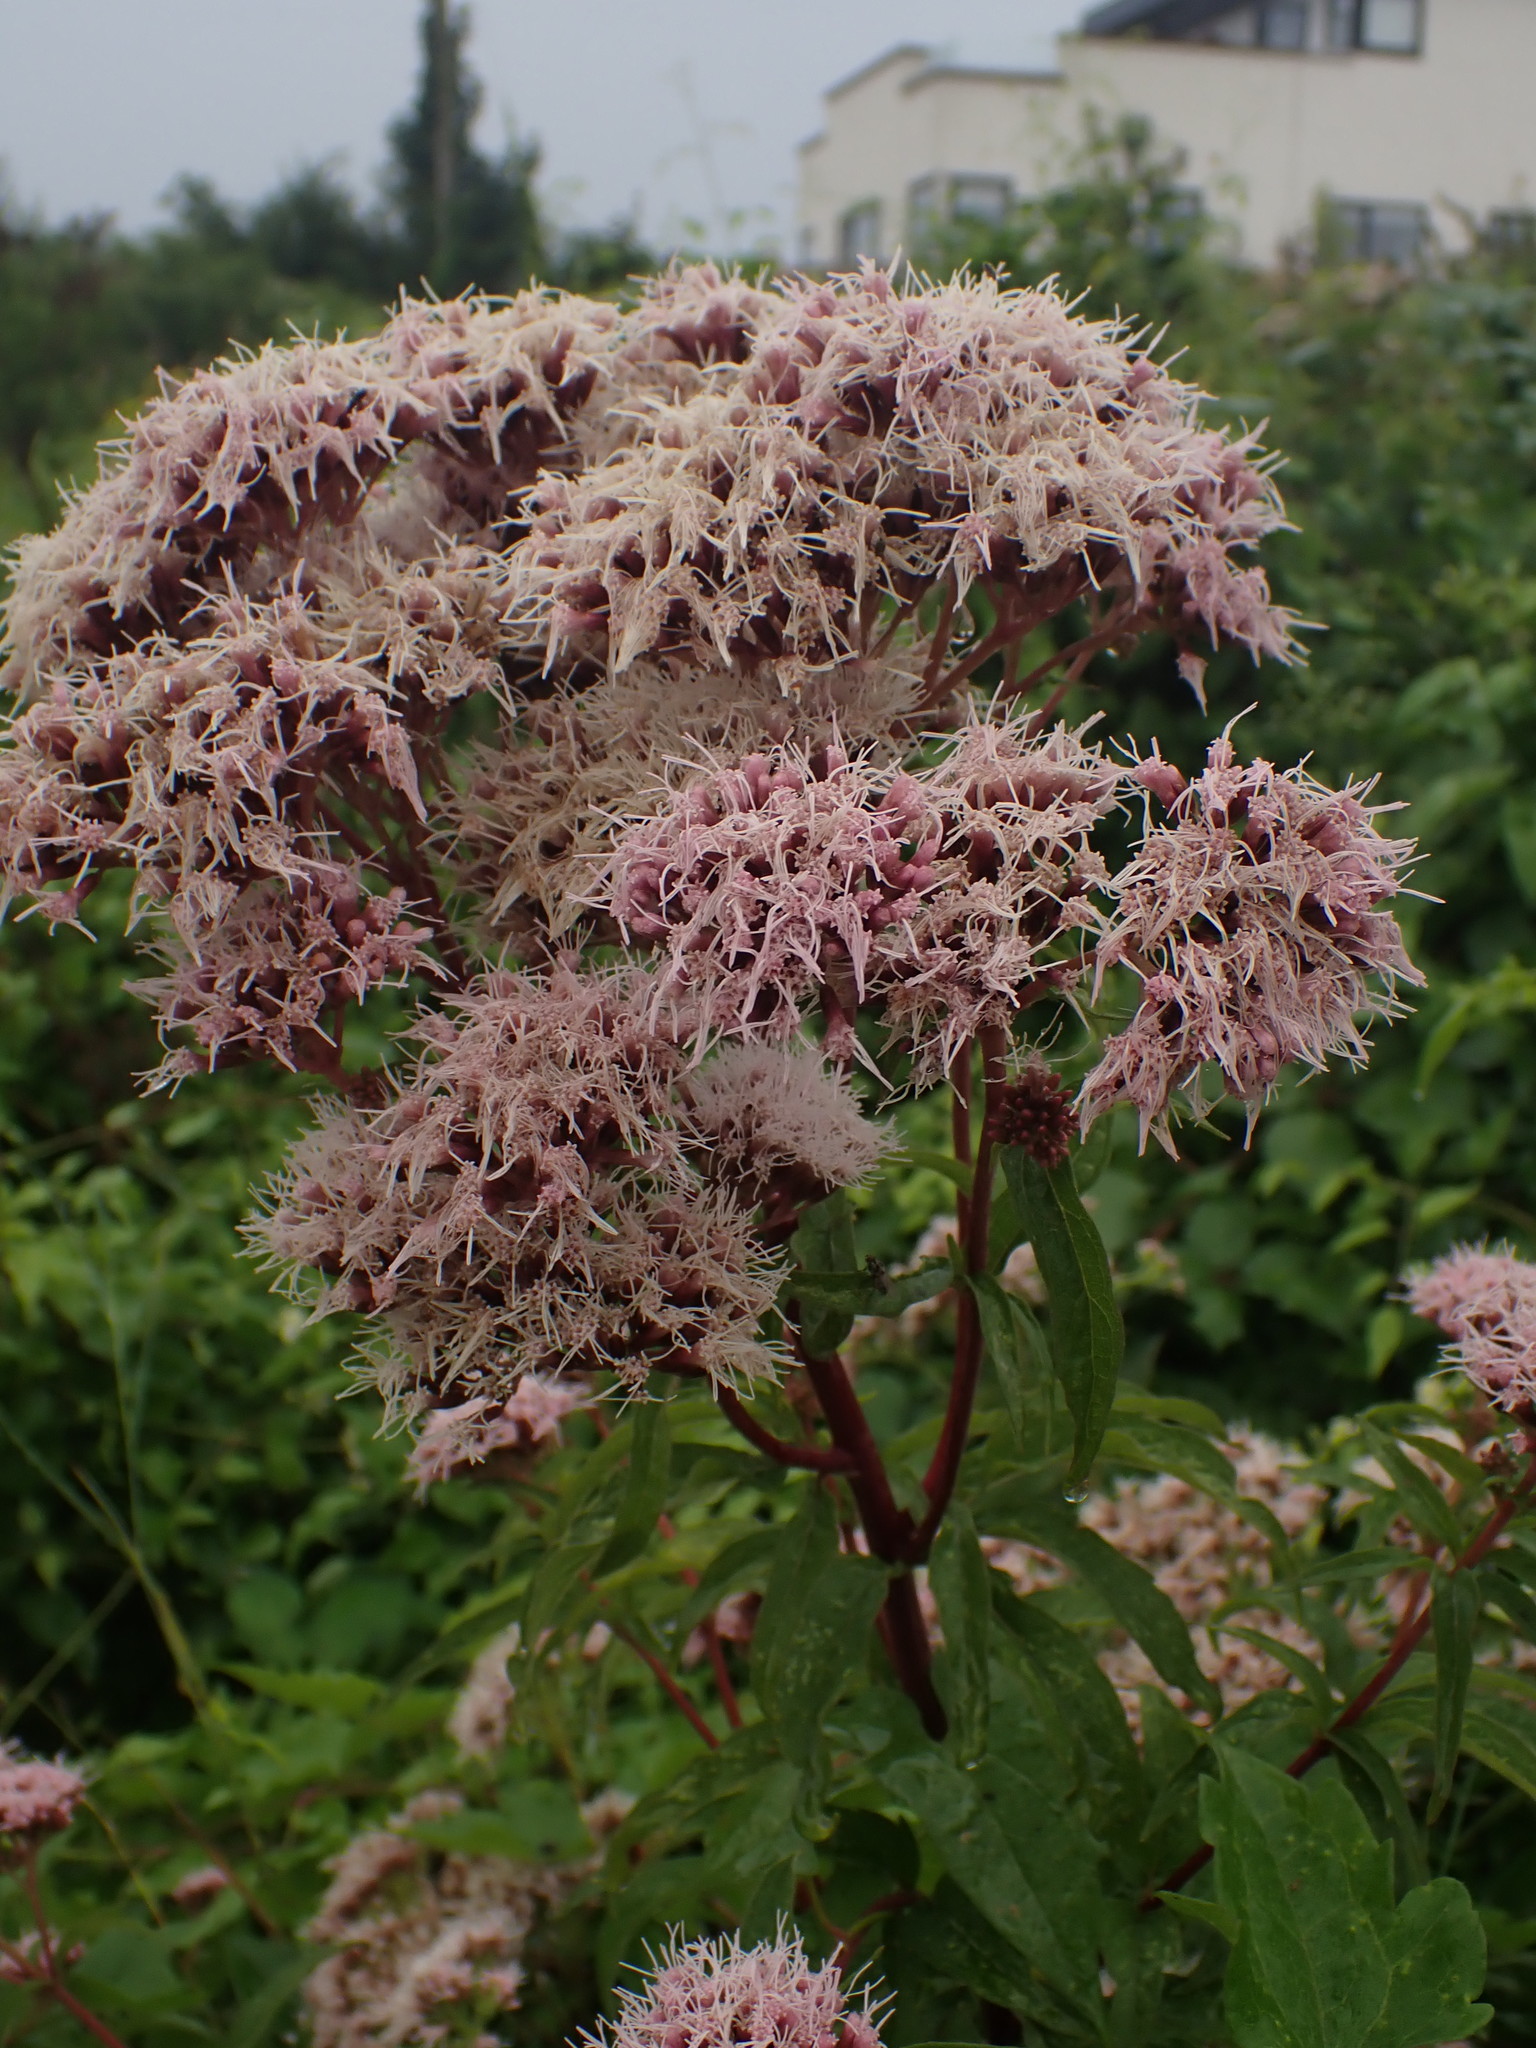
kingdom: Plantae
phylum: Tracheophyta
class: Magnoliopsida
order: Asterales
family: Asteraceae
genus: Eupatorium
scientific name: Eupatorium cannabinum
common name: Hemp-agrimony
